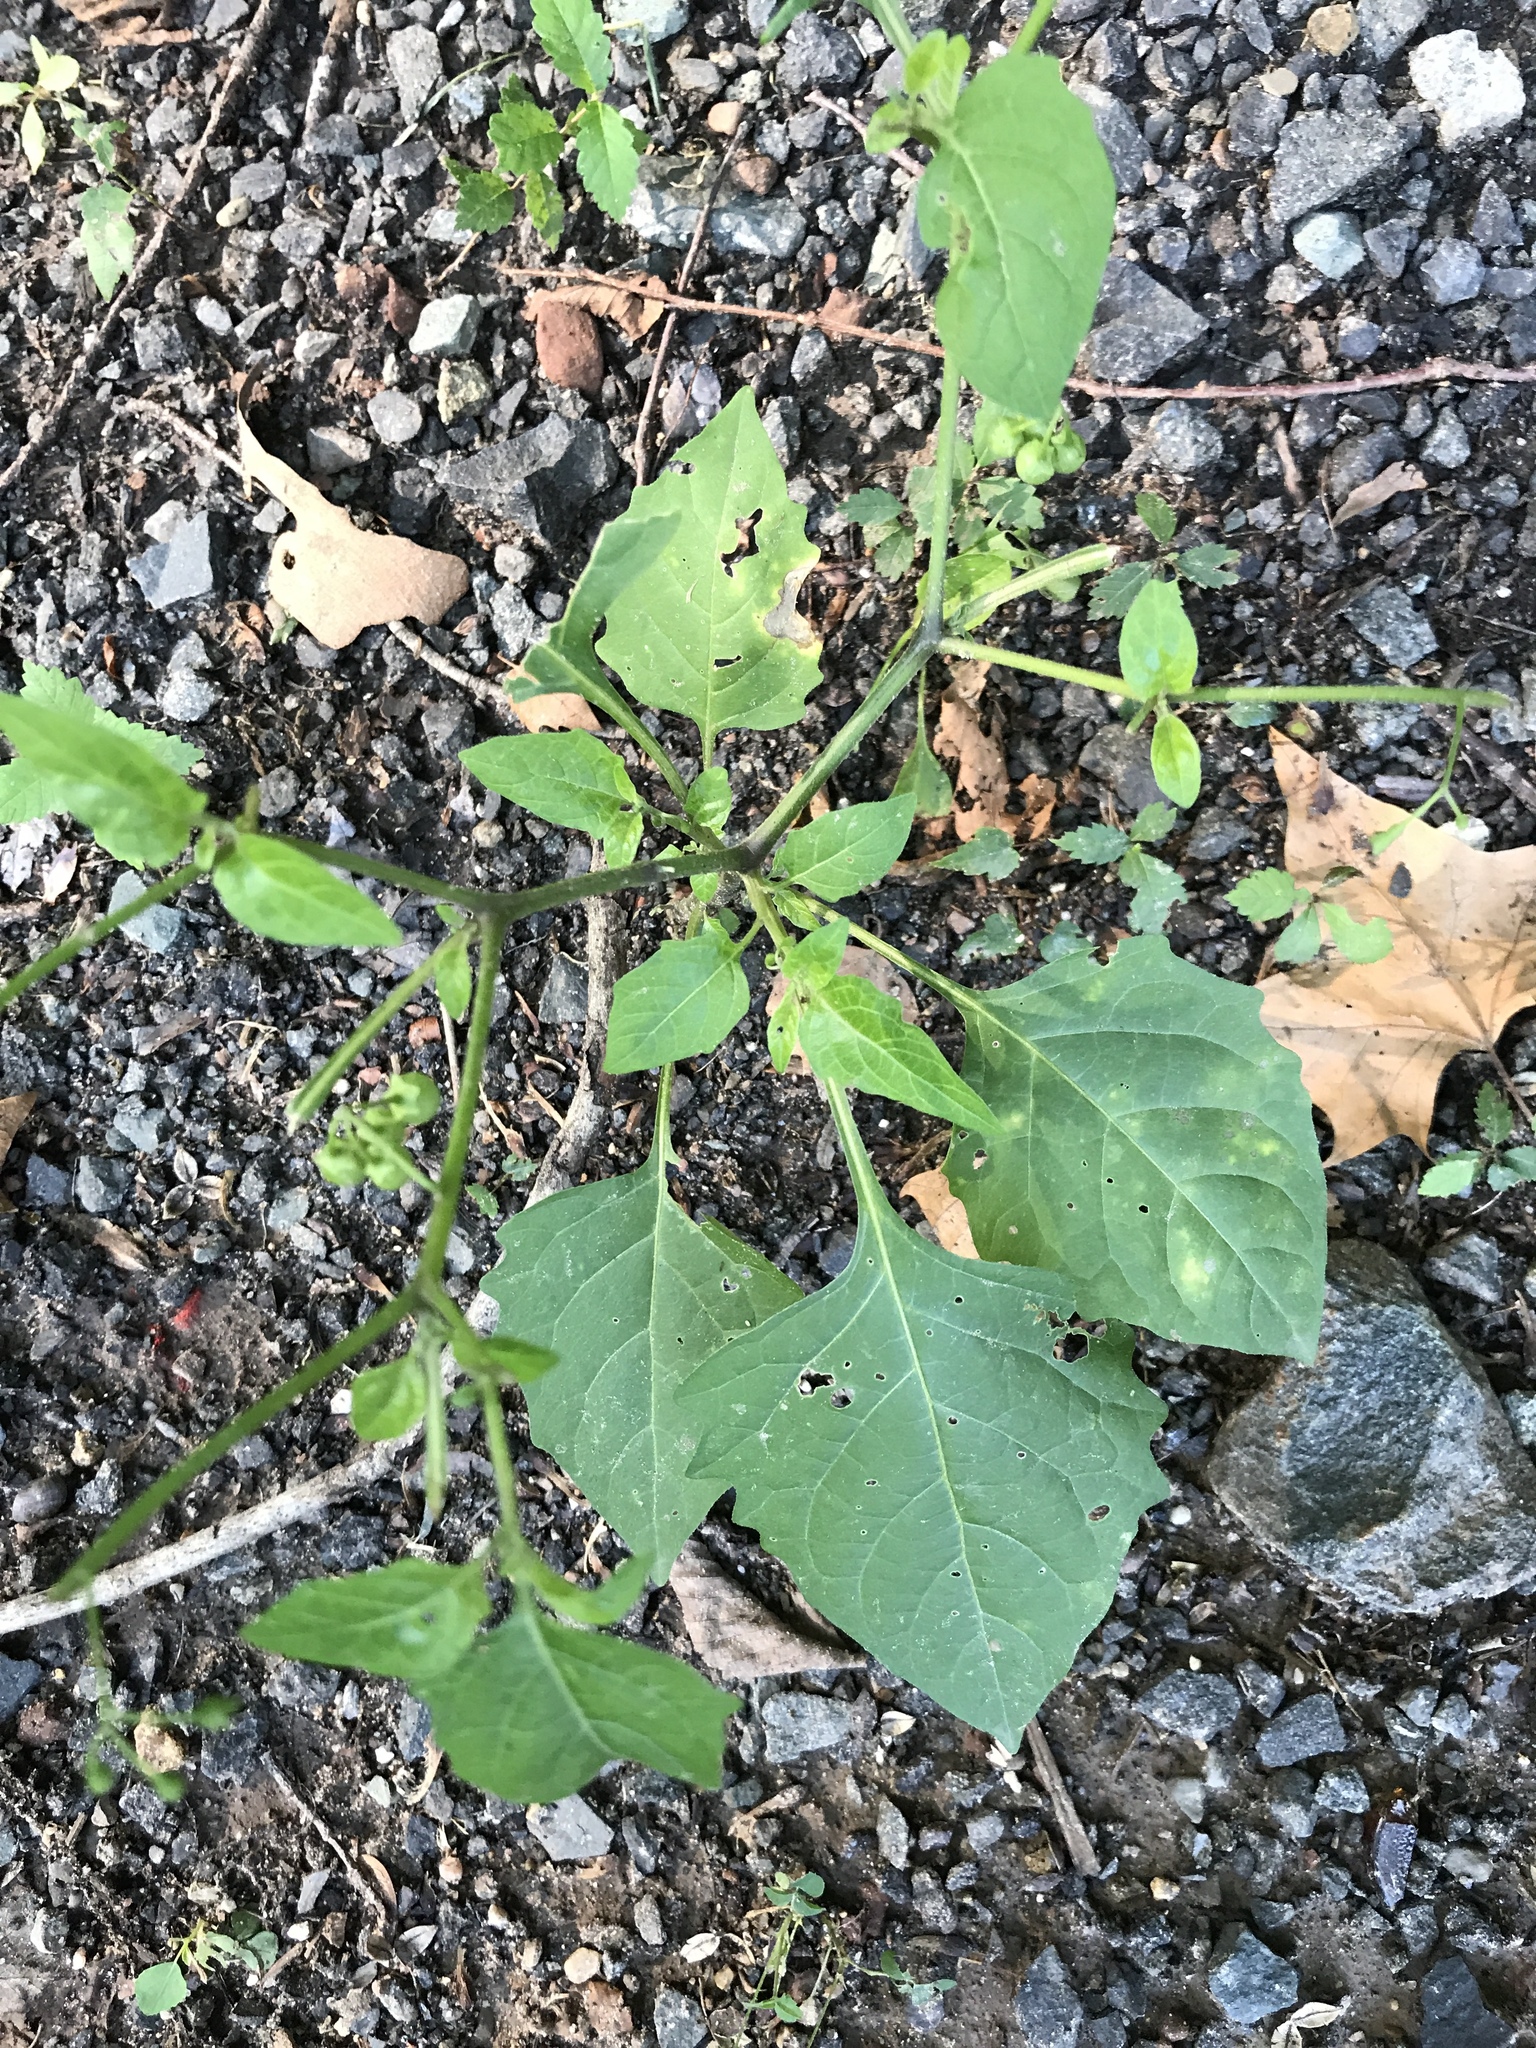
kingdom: Plantae
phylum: Tracheophyta
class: Magnoliopsida
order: Solanales
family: Solanaceae
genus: Solanum
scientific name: Solanum emulans
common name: Eastern black nightshade
